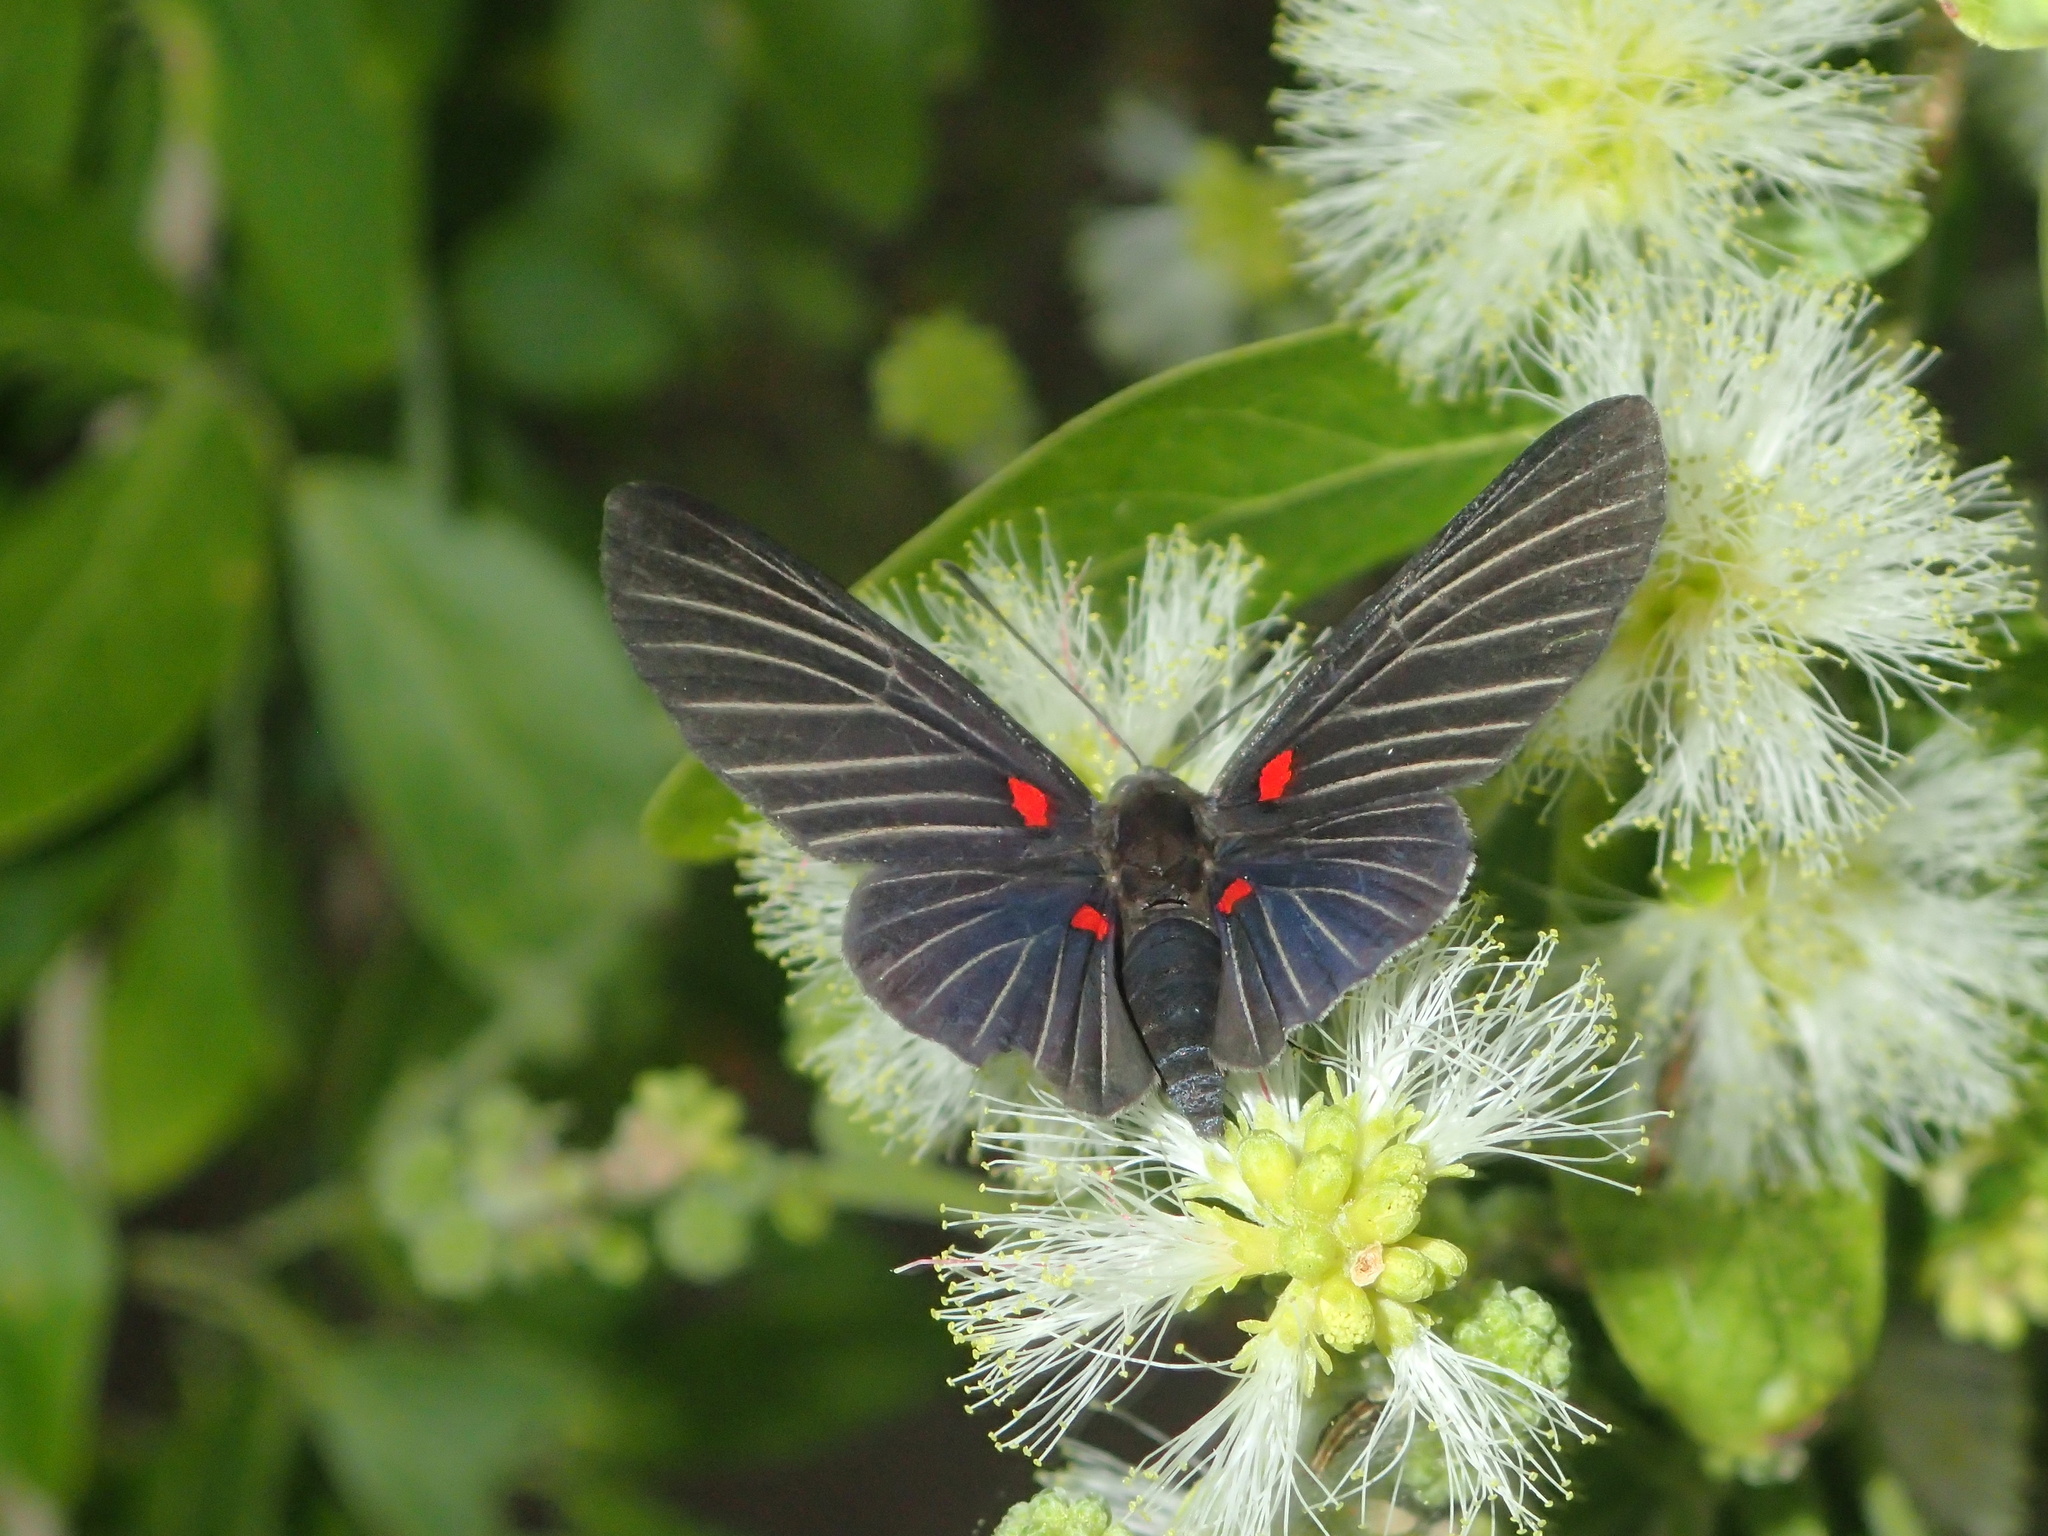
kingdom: Animalia
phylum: Arthropoda
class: Insecta
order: Lepidoptera
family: Lycaenidae
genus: Melanis
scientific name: Melanis
